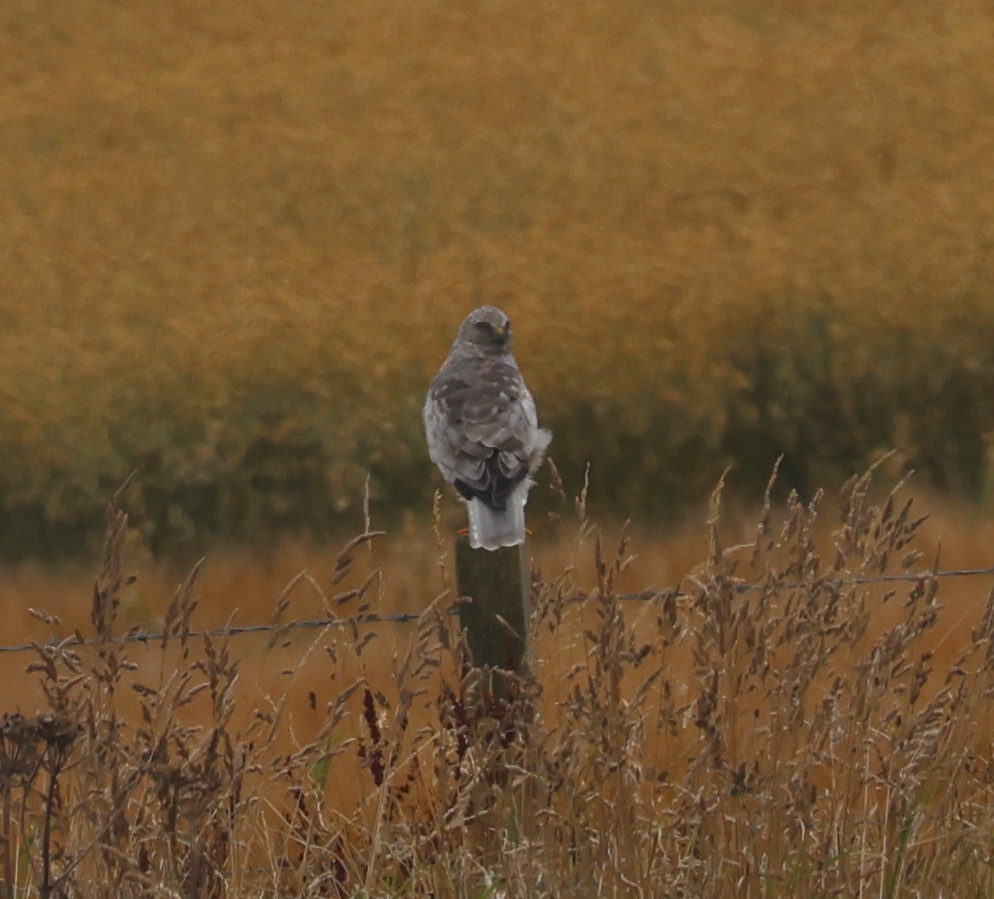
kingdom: Animalia
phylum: Chordata
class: Aves
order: Accipitriformes
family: Accipitridae
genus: Circus
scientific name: Circus cyaneus
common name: Hen harrier
